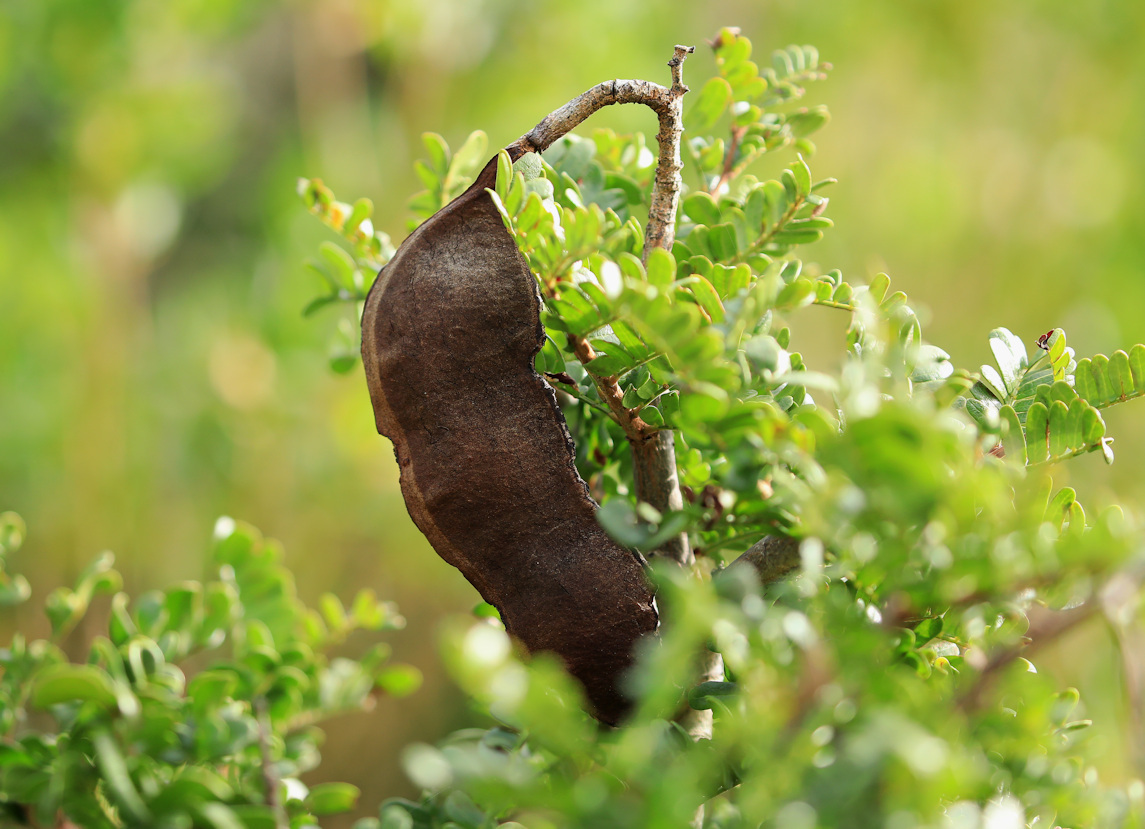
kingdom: Plantae
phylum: Tracheophyta
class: Magnoliopsida
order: Fabales
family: Fabaceae
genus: Schotia
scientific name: Schotia afra
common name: Hottentot's bean
